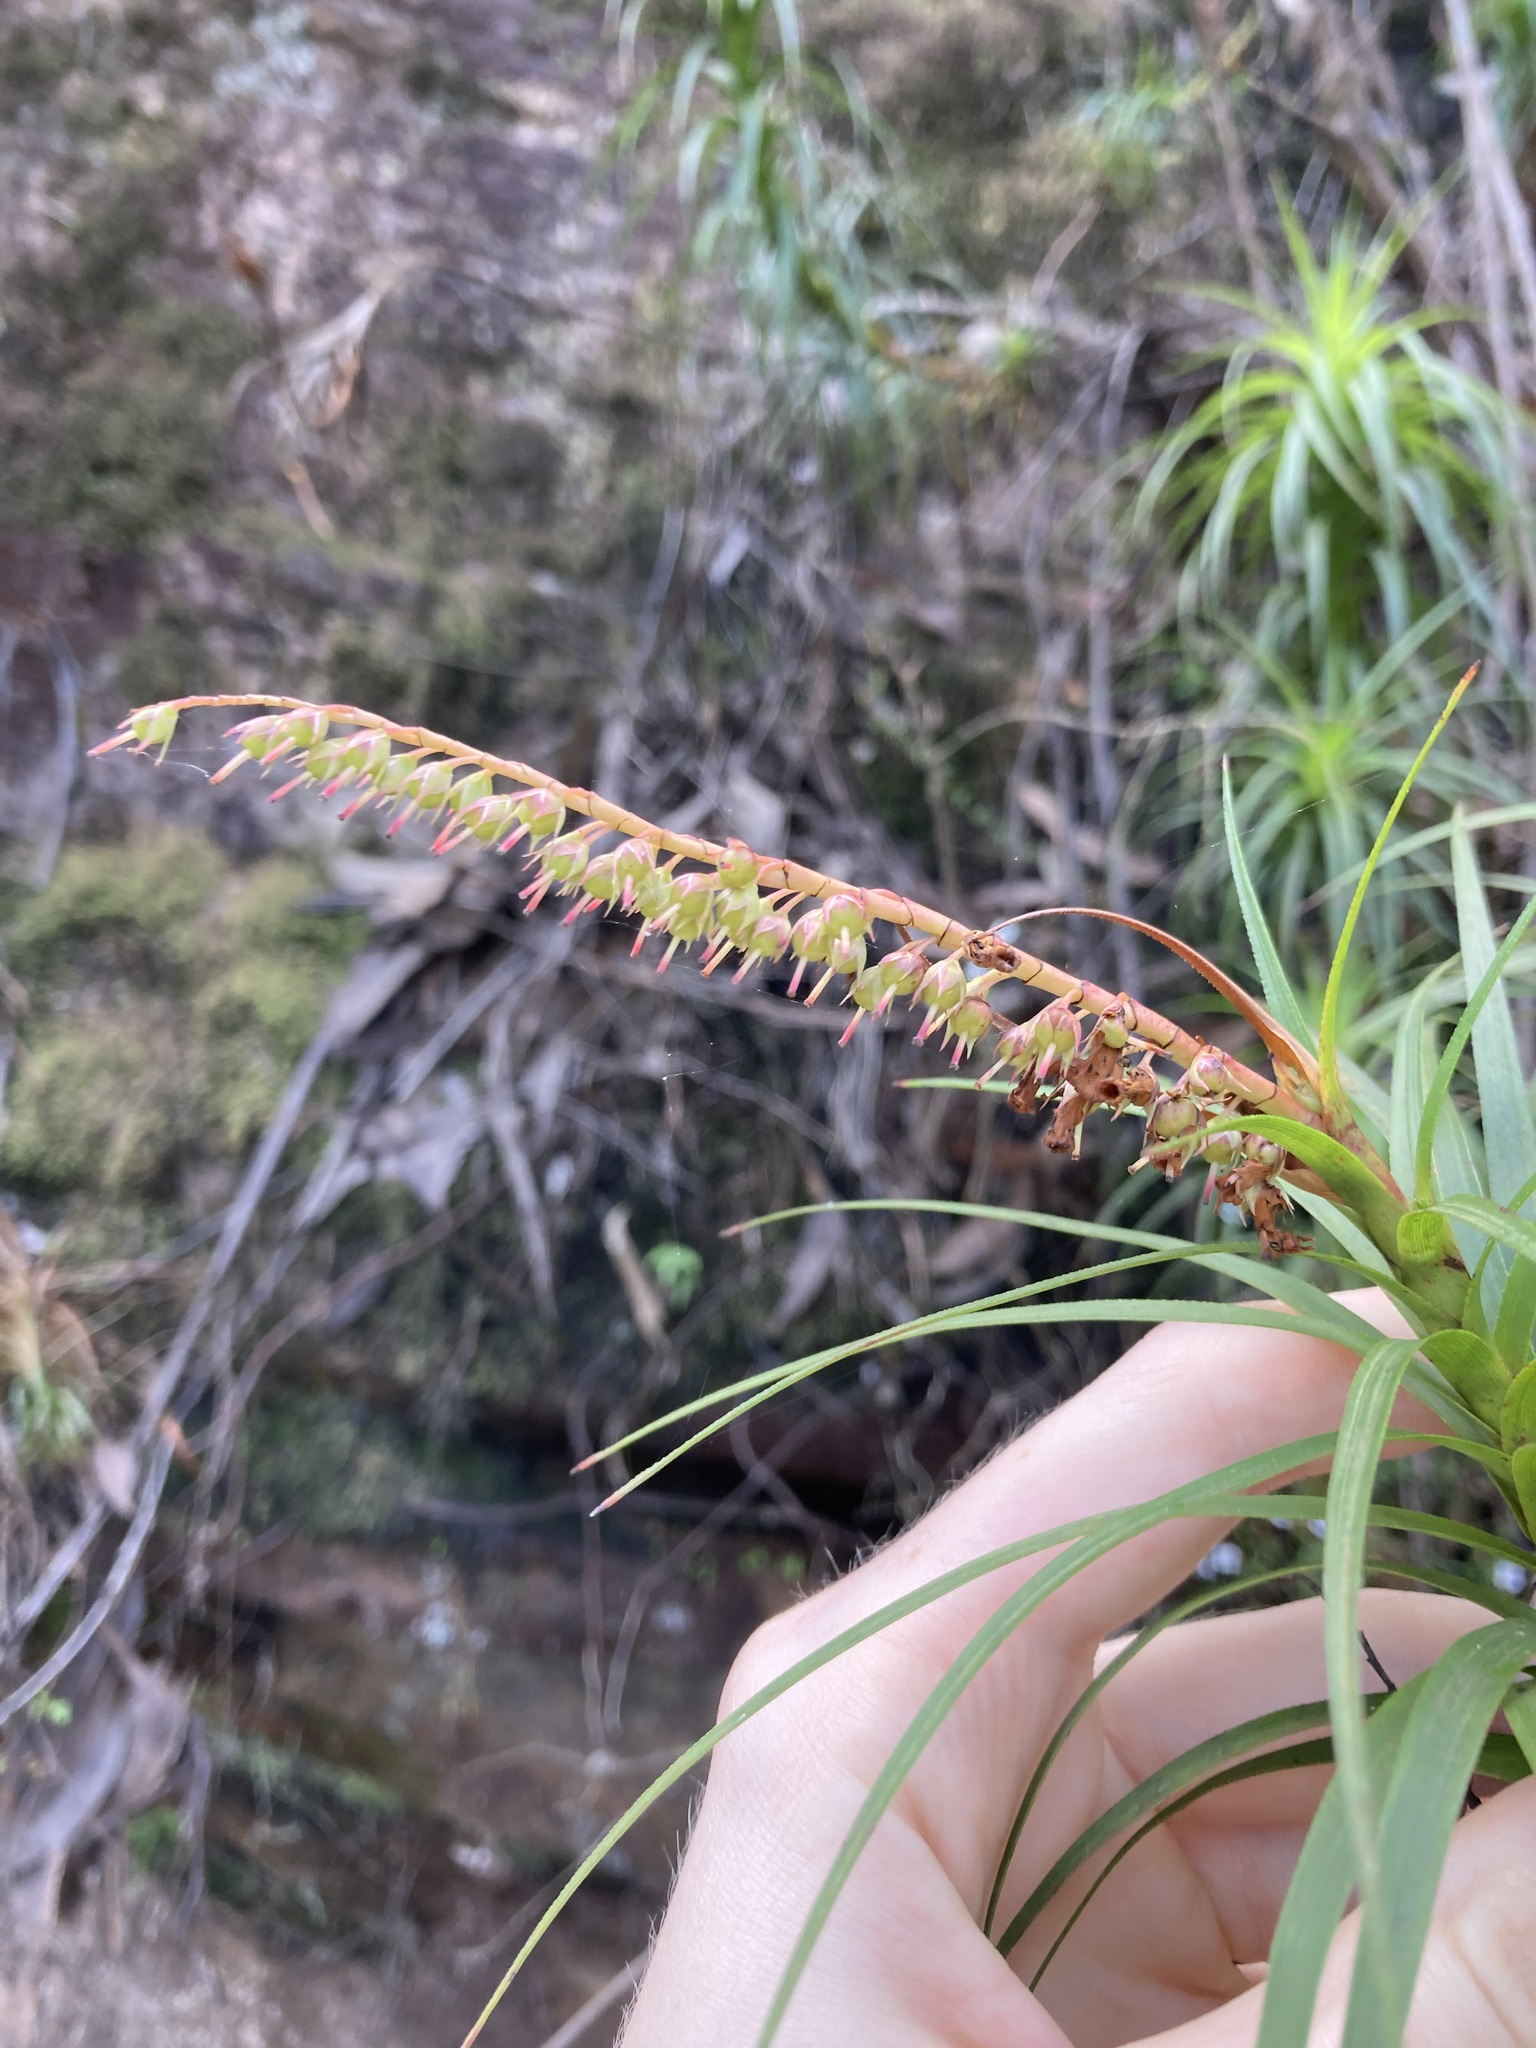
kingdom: Plantae
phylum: Tracheophyta
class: Magnoliopsida
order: Ericales
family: Ericaceae
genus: Dracophyllum
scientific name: Dracophyllum secundum
